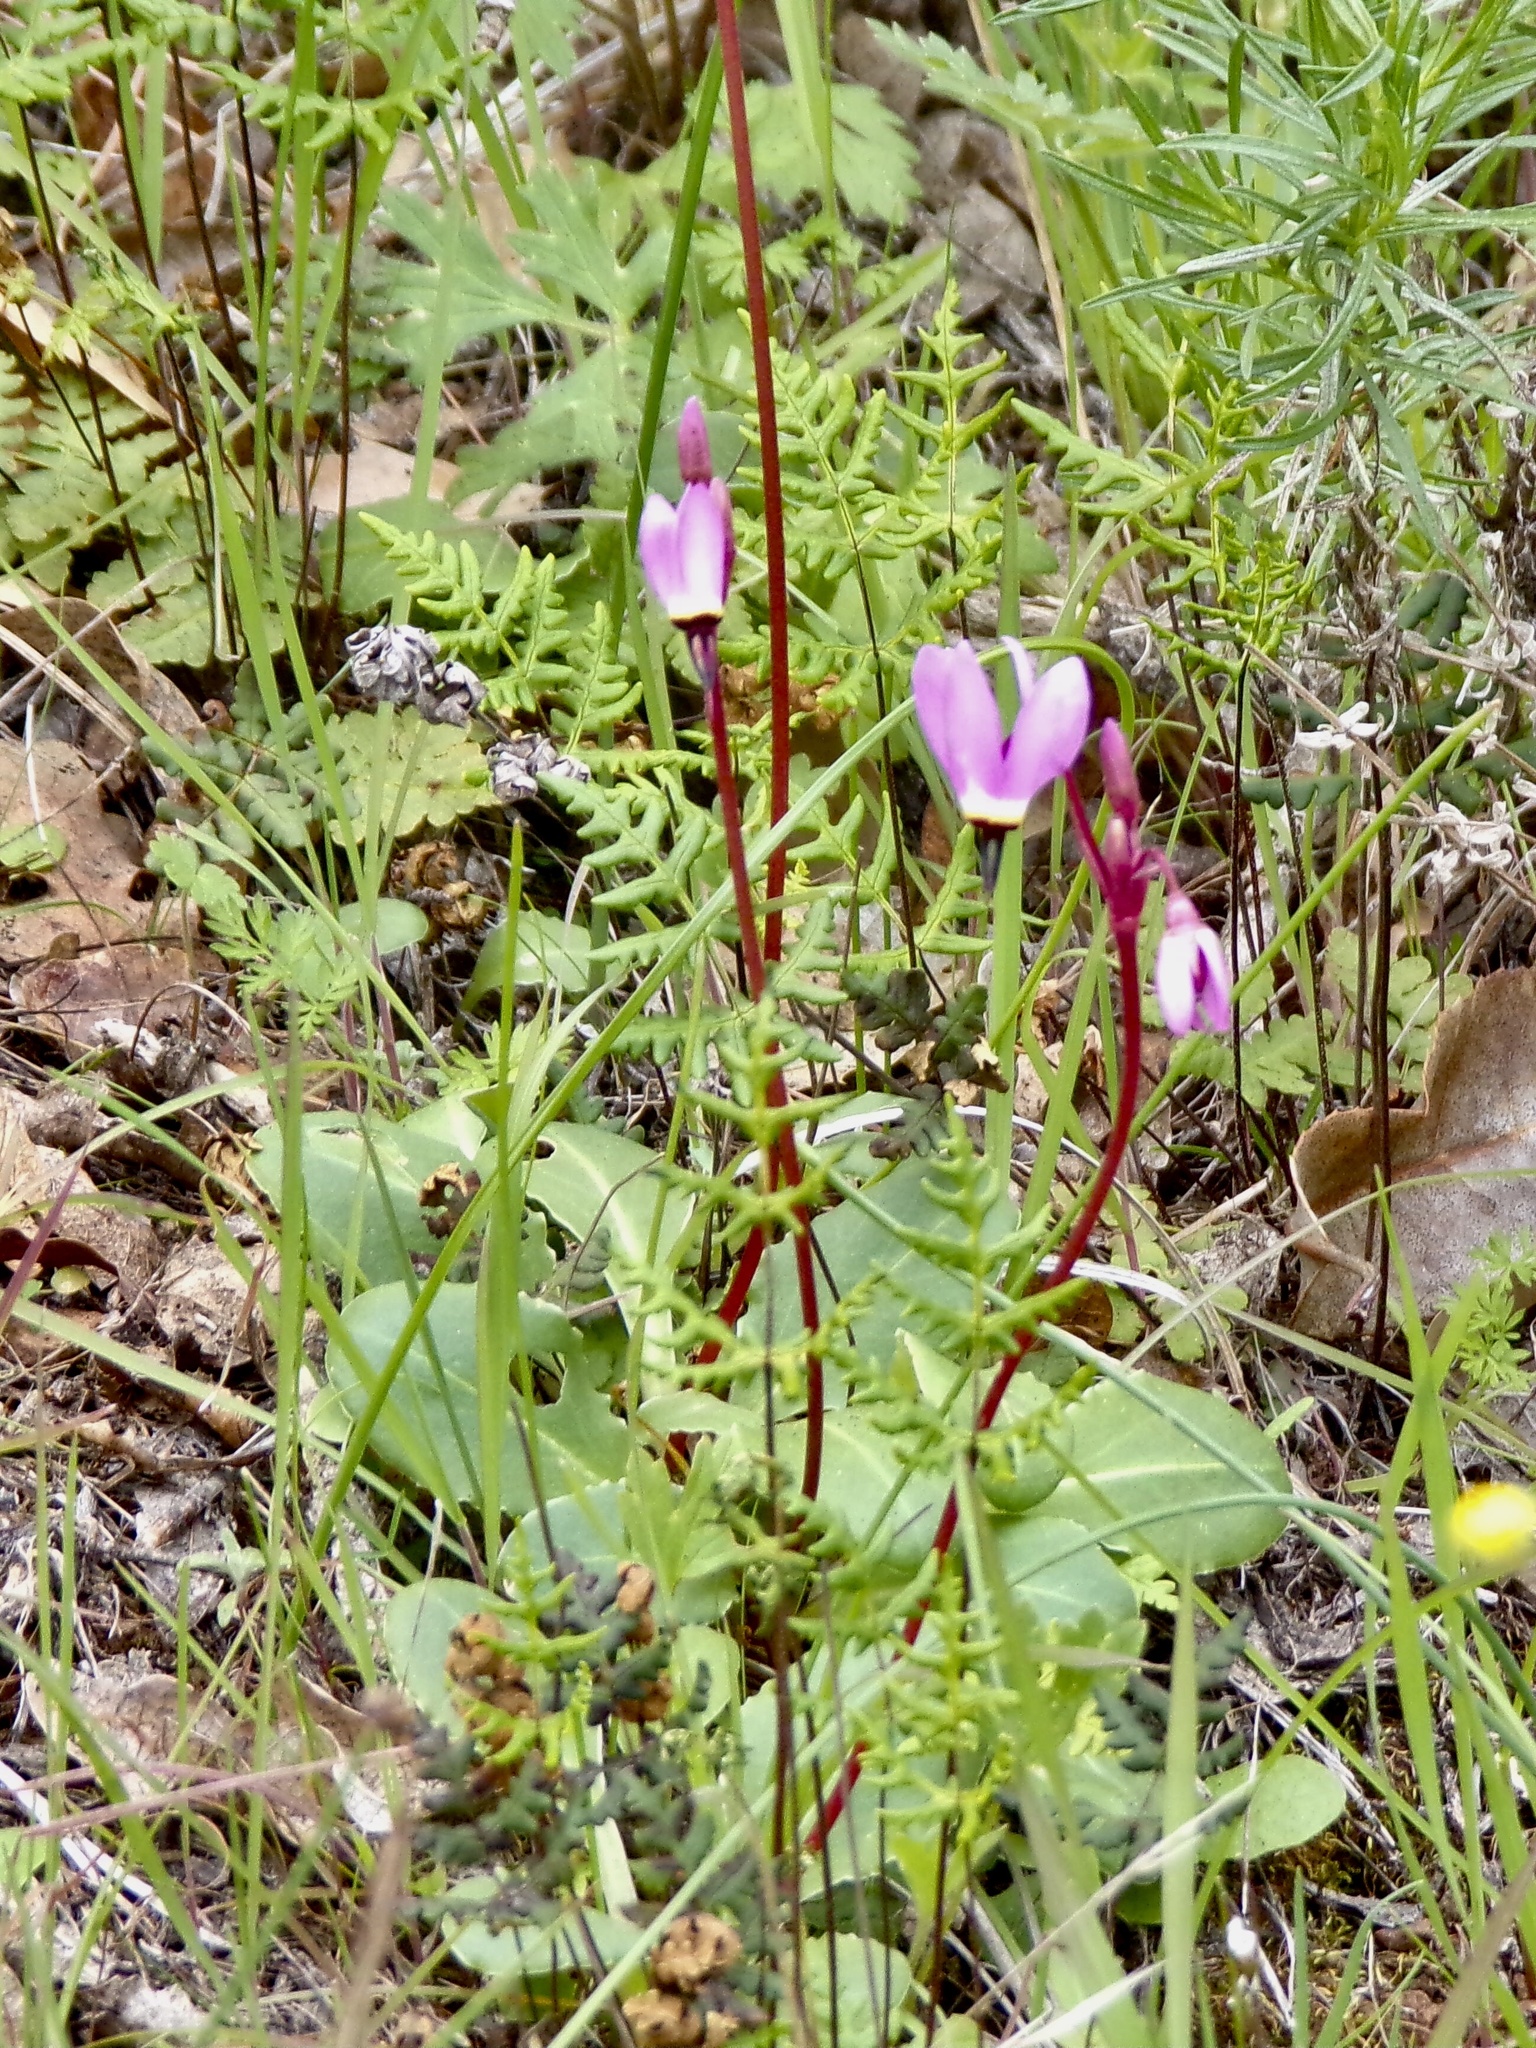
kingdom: Plantae
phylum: Tracheophyta
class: Magnoliopsida
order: Ericales
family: Primulaceae
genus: Dodecatheon
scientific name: Dodecatheon hendersonii
